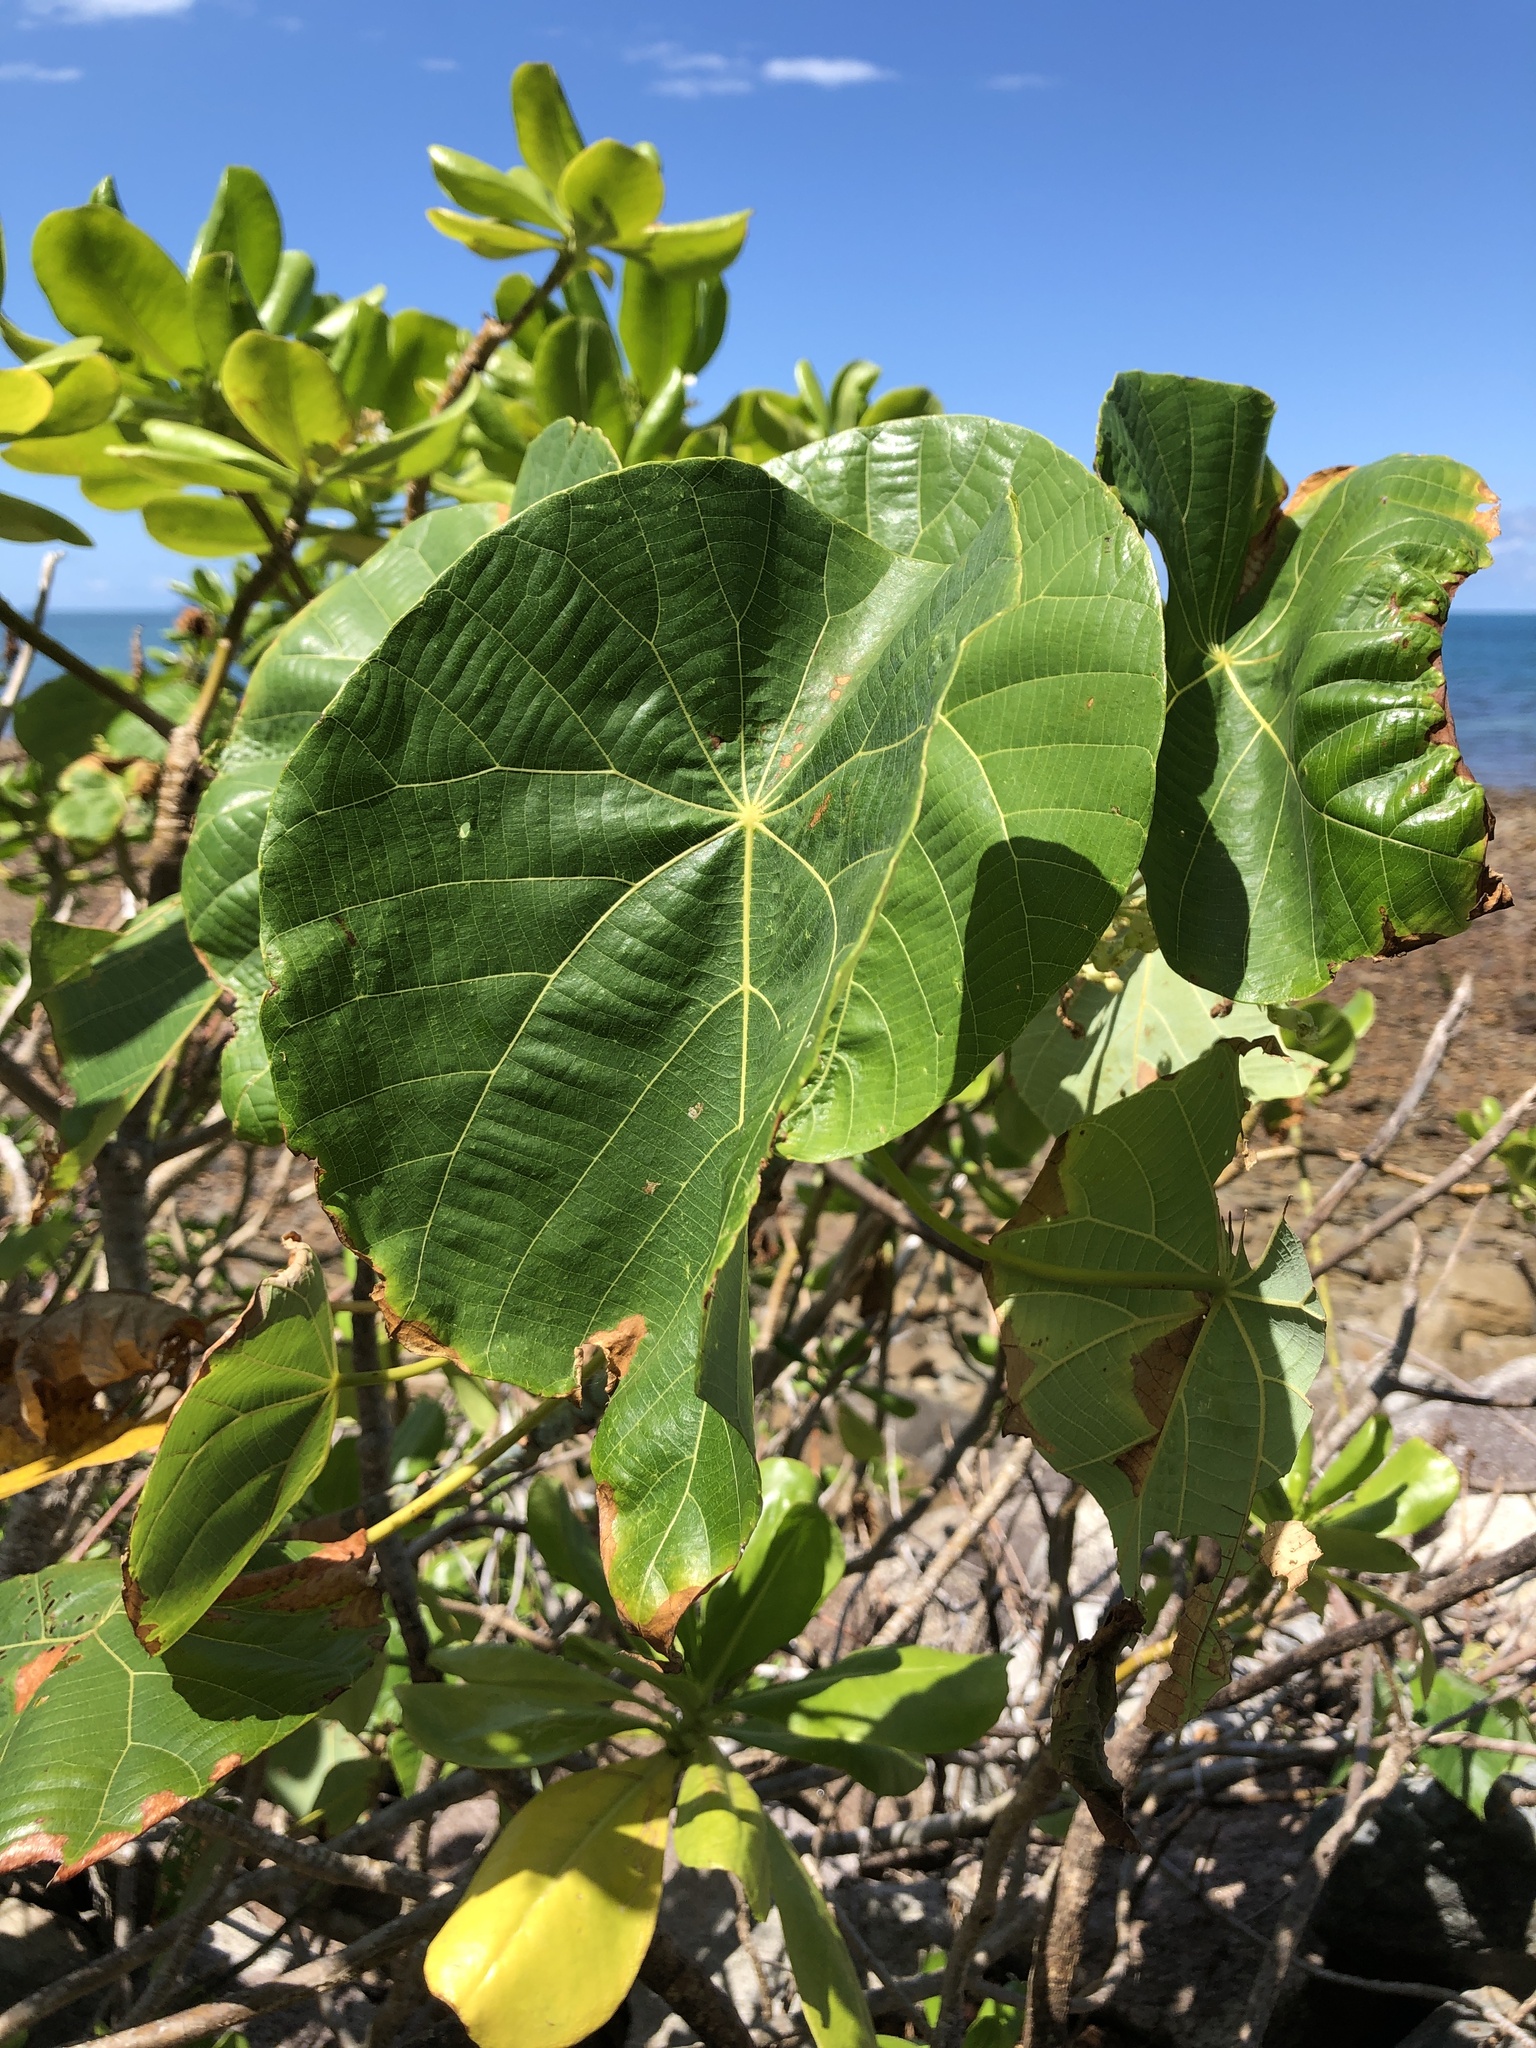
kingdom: Plantae
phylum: Tracheophyta
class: Magnoliopsida
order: Malpighiales
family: Euphorbiaceae
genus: Macaranga
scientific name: Macaranga tanarius
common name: Parasol leaf tree
